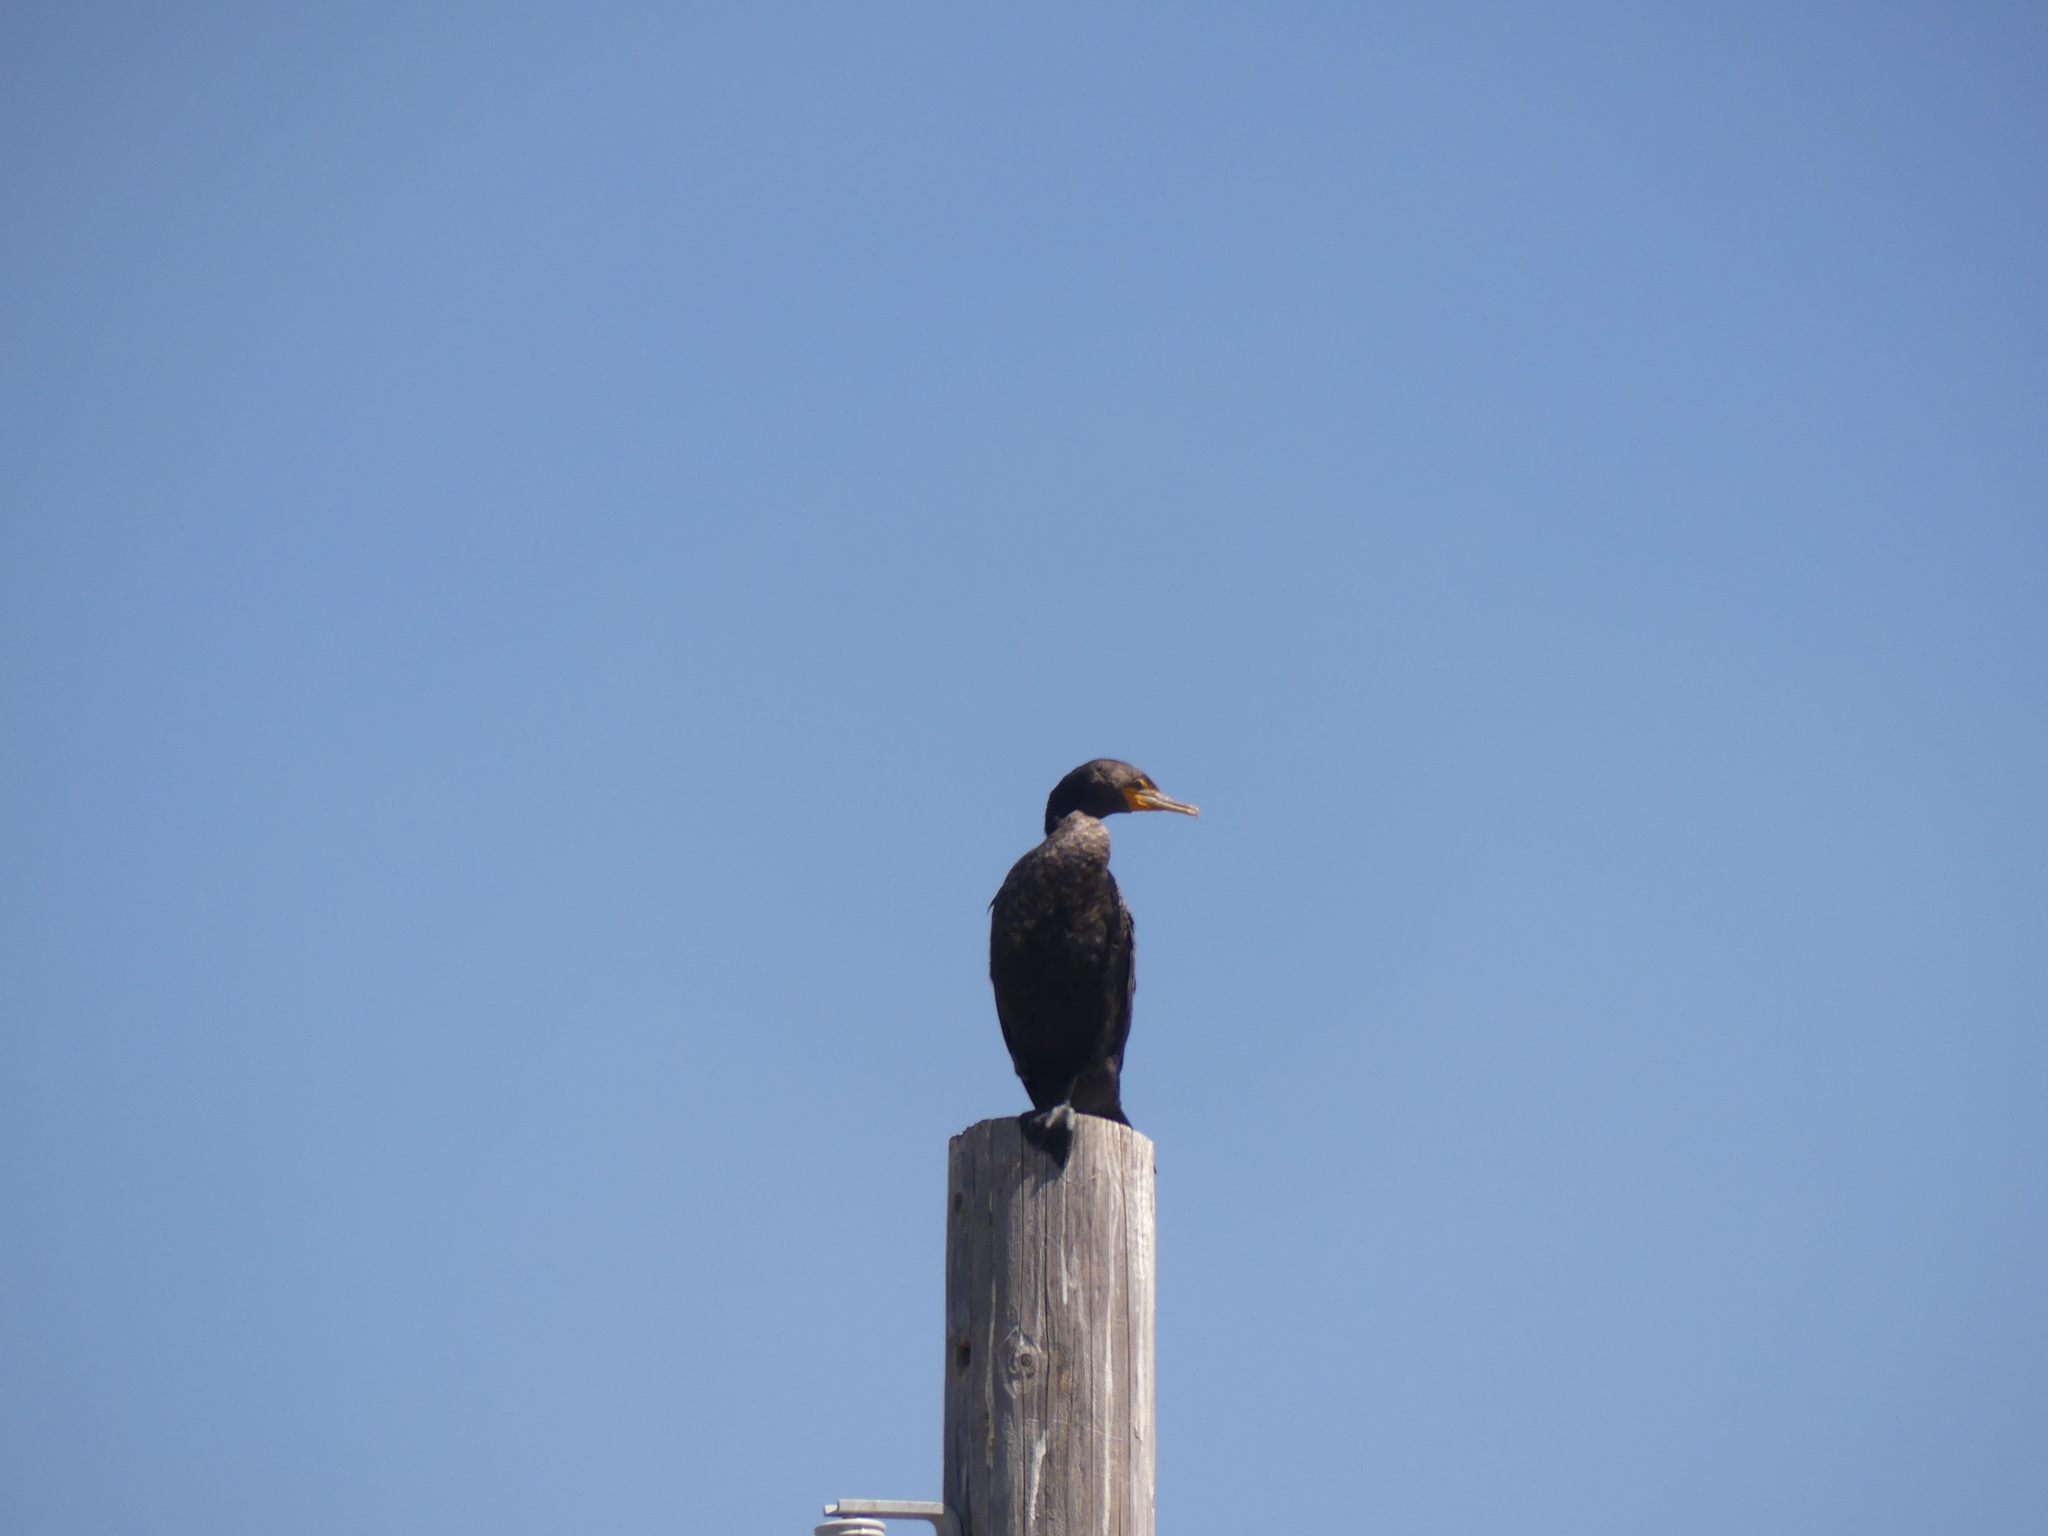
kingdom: Animalia
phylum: Chordata
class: Aves
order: Suliformes
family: Phalacrocoracidae
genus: Phalacrocorax
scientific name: Phalacrocorax auritus
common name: Double-crested cormorant
